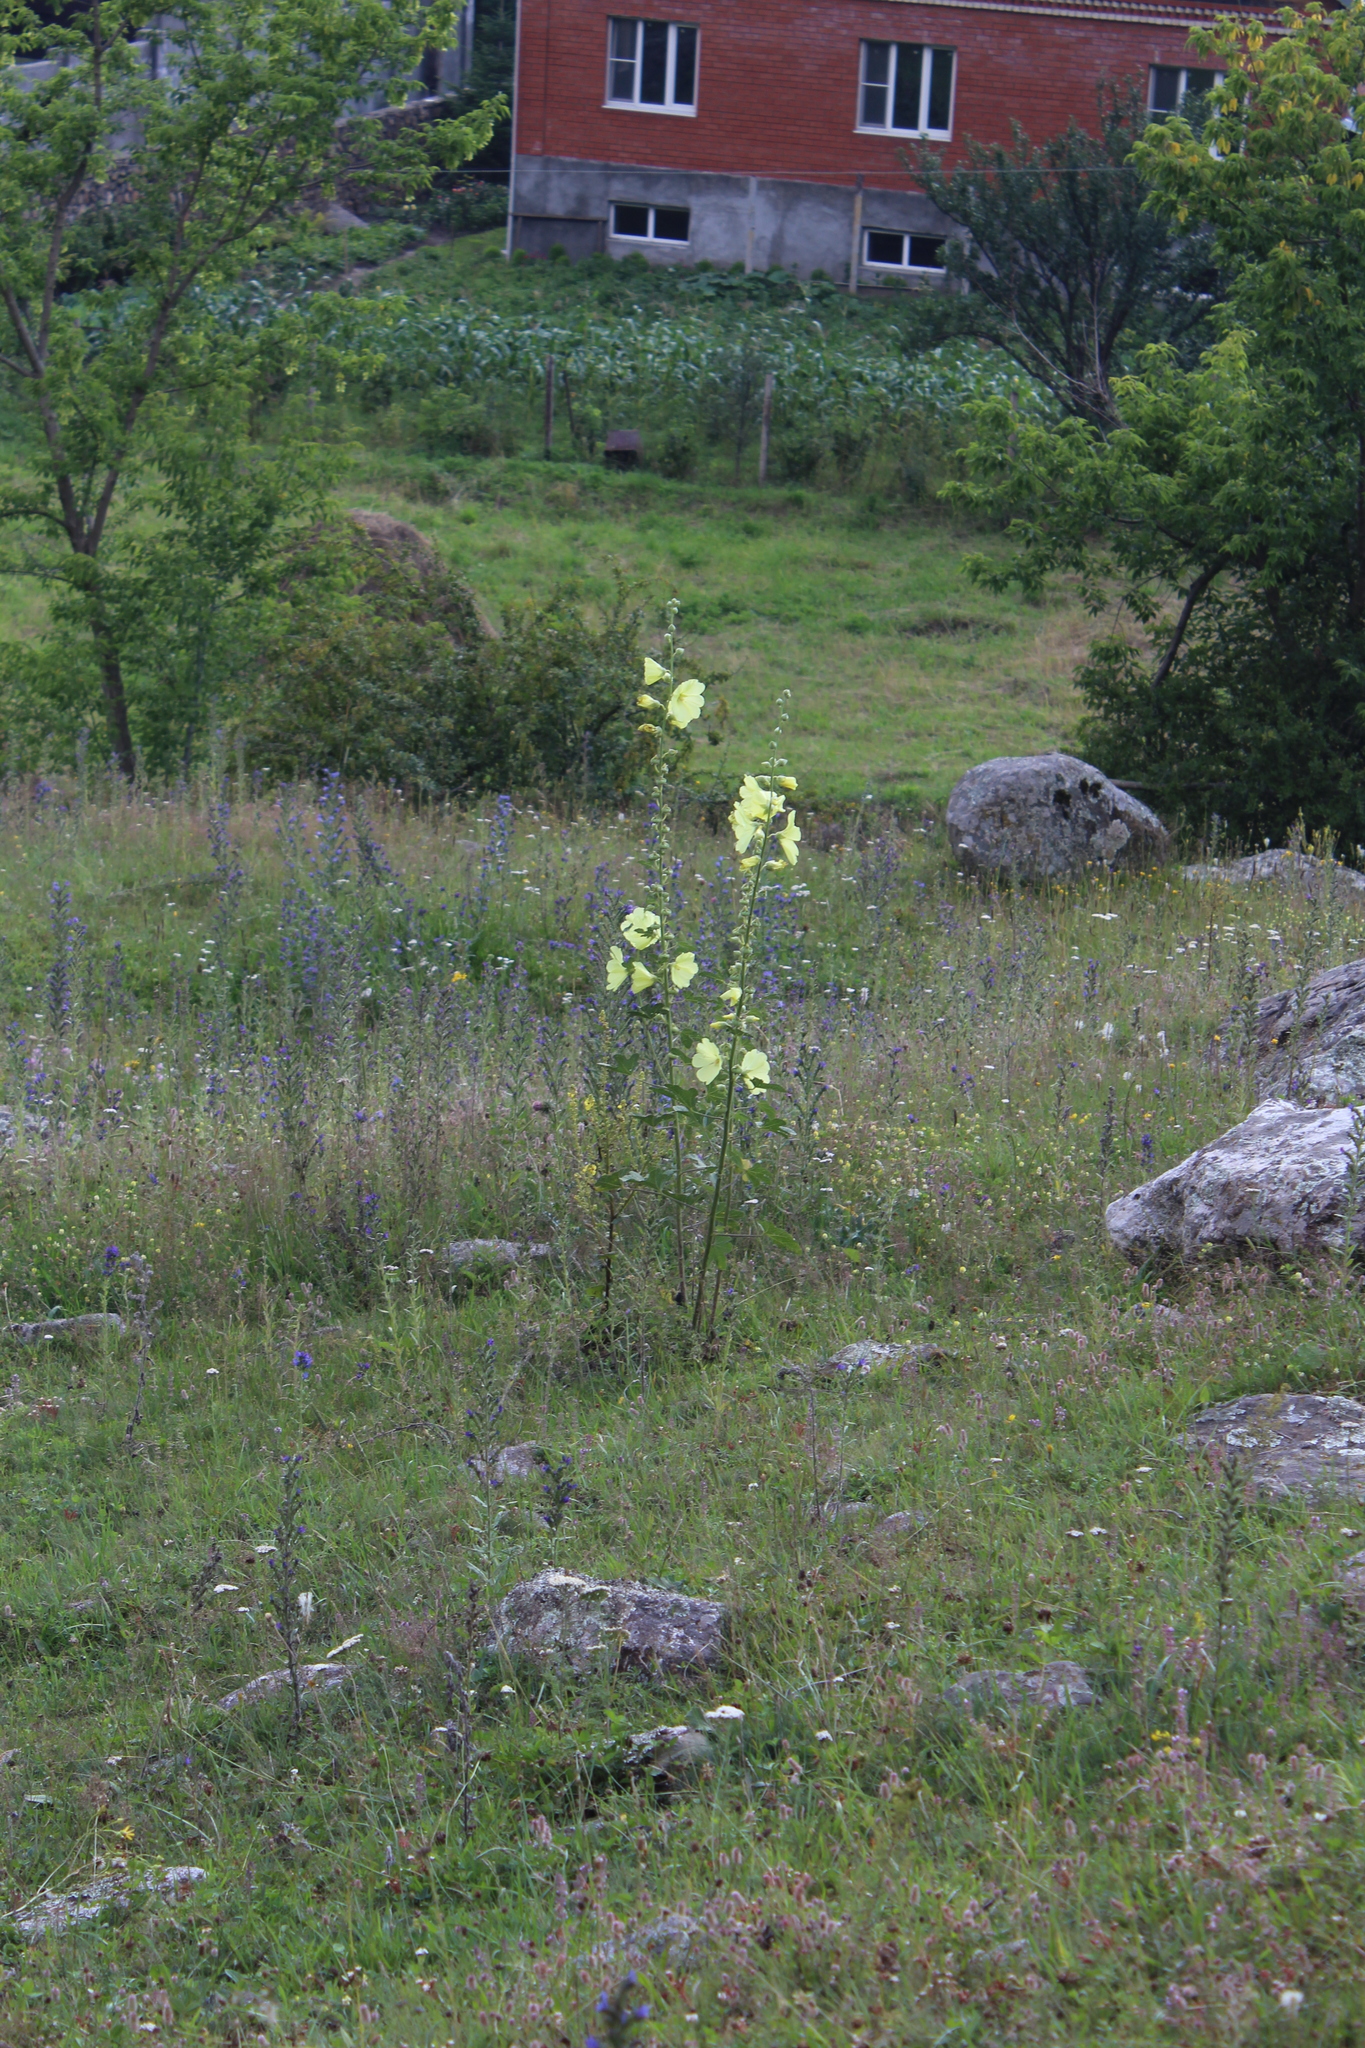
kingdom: Plantae
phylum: Tracheophyta
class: Magnoliopsida
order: Malvales
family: Malvaceae
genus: Alcea
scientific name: Alcea rugosa
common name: Russian hollyhock
